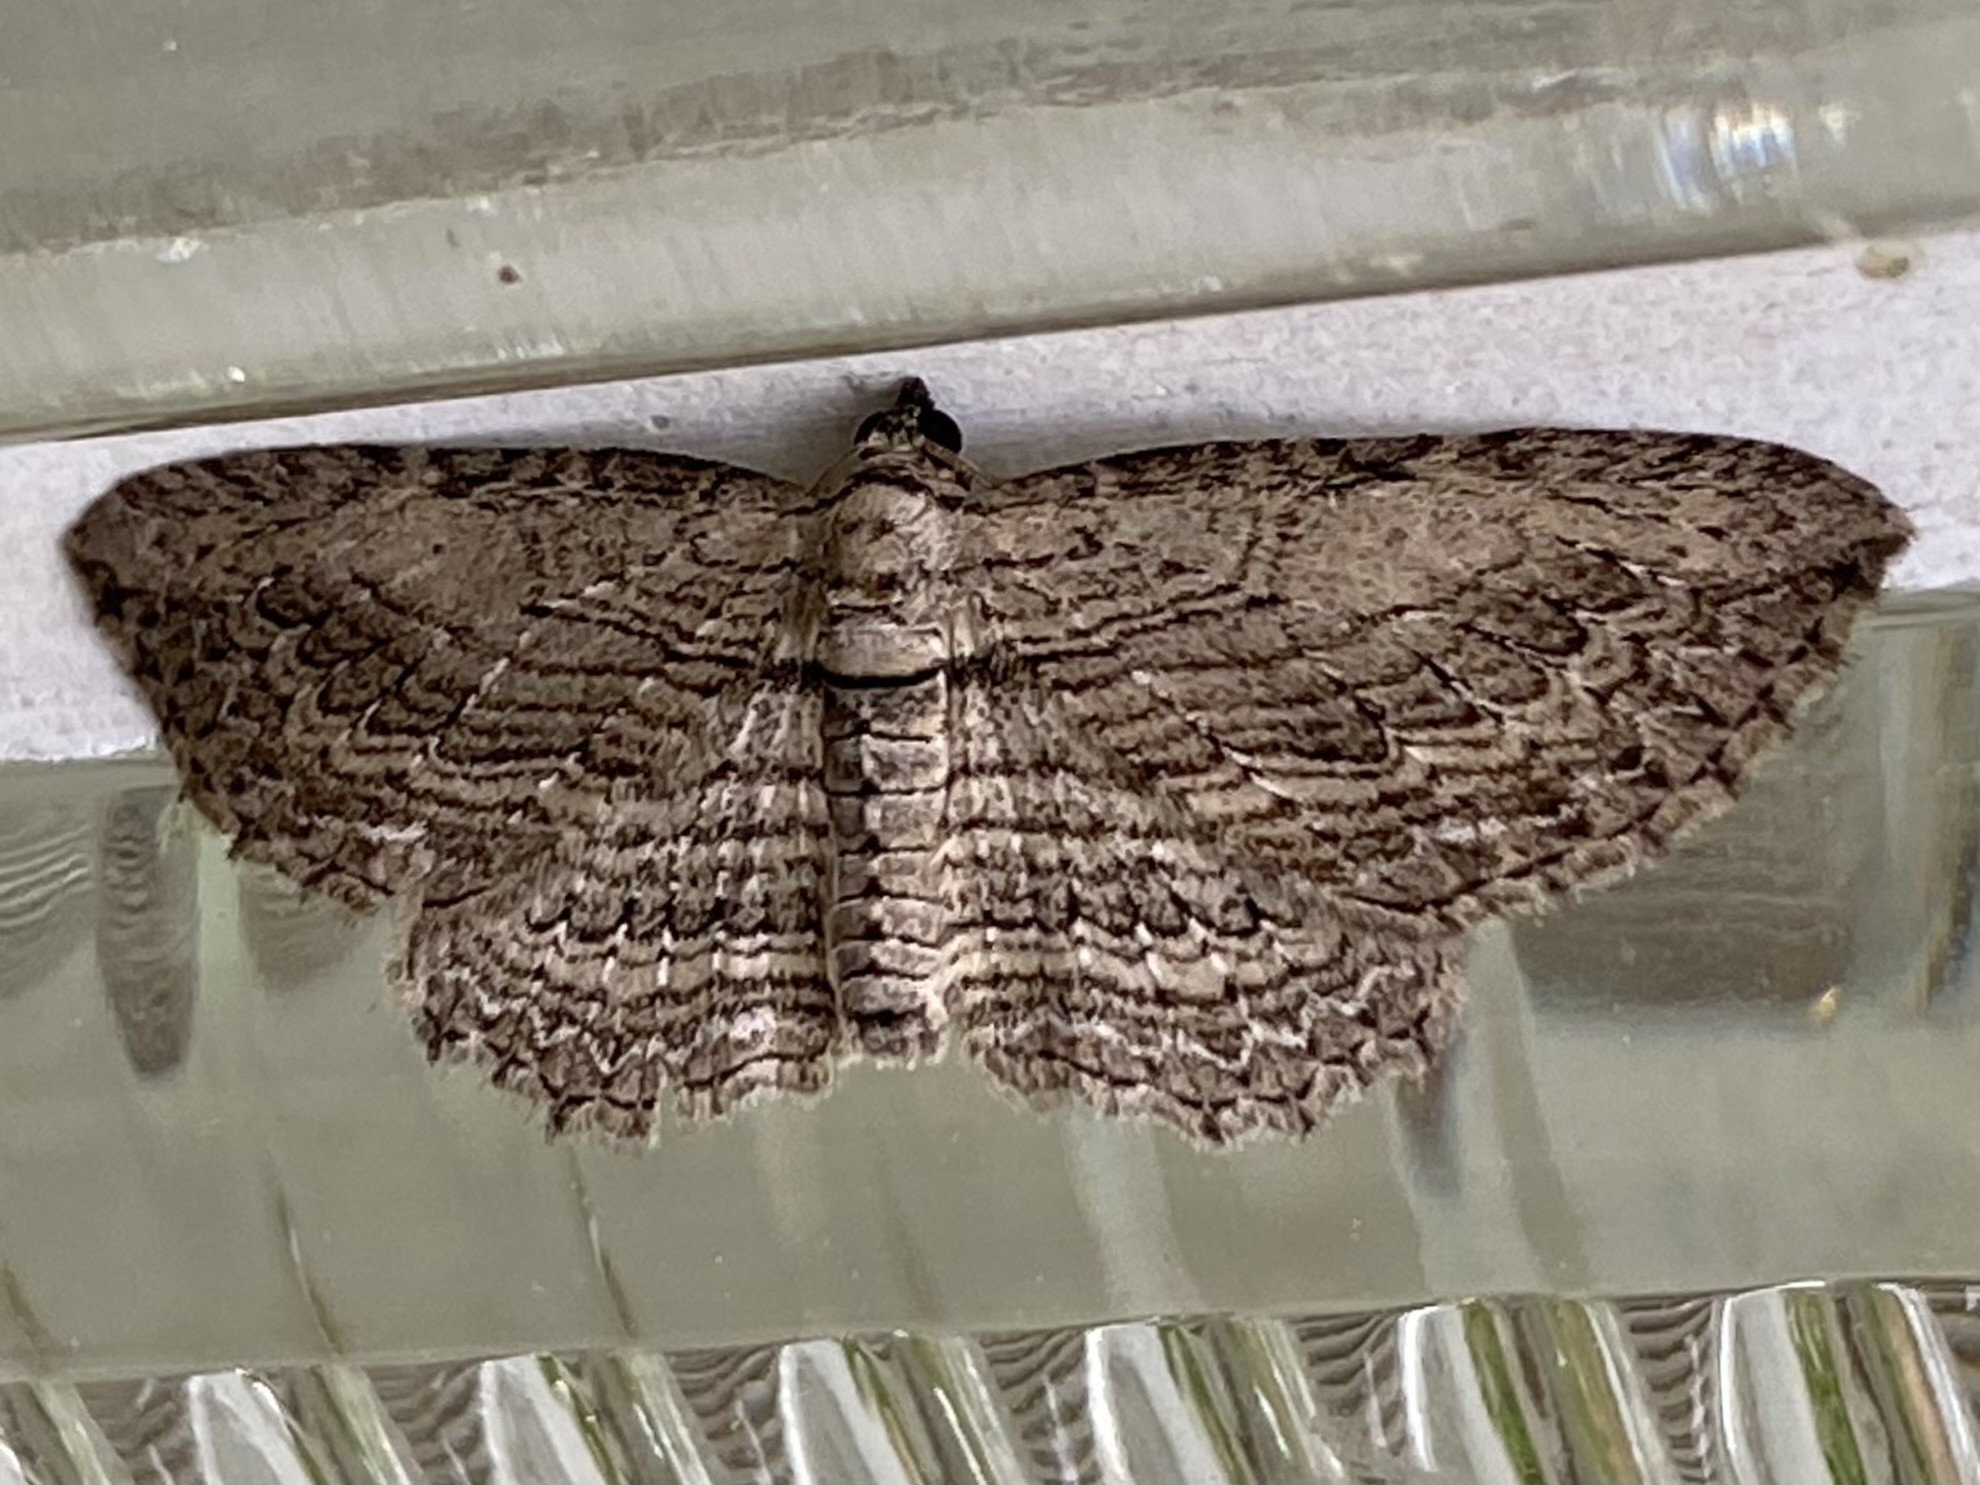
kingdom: Animalia
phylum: Arthropoda
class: Insecta
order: Lepidoptera
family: Geometridae
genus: Horisme
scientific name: Horisme intestinata
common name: Brown bark carpet
